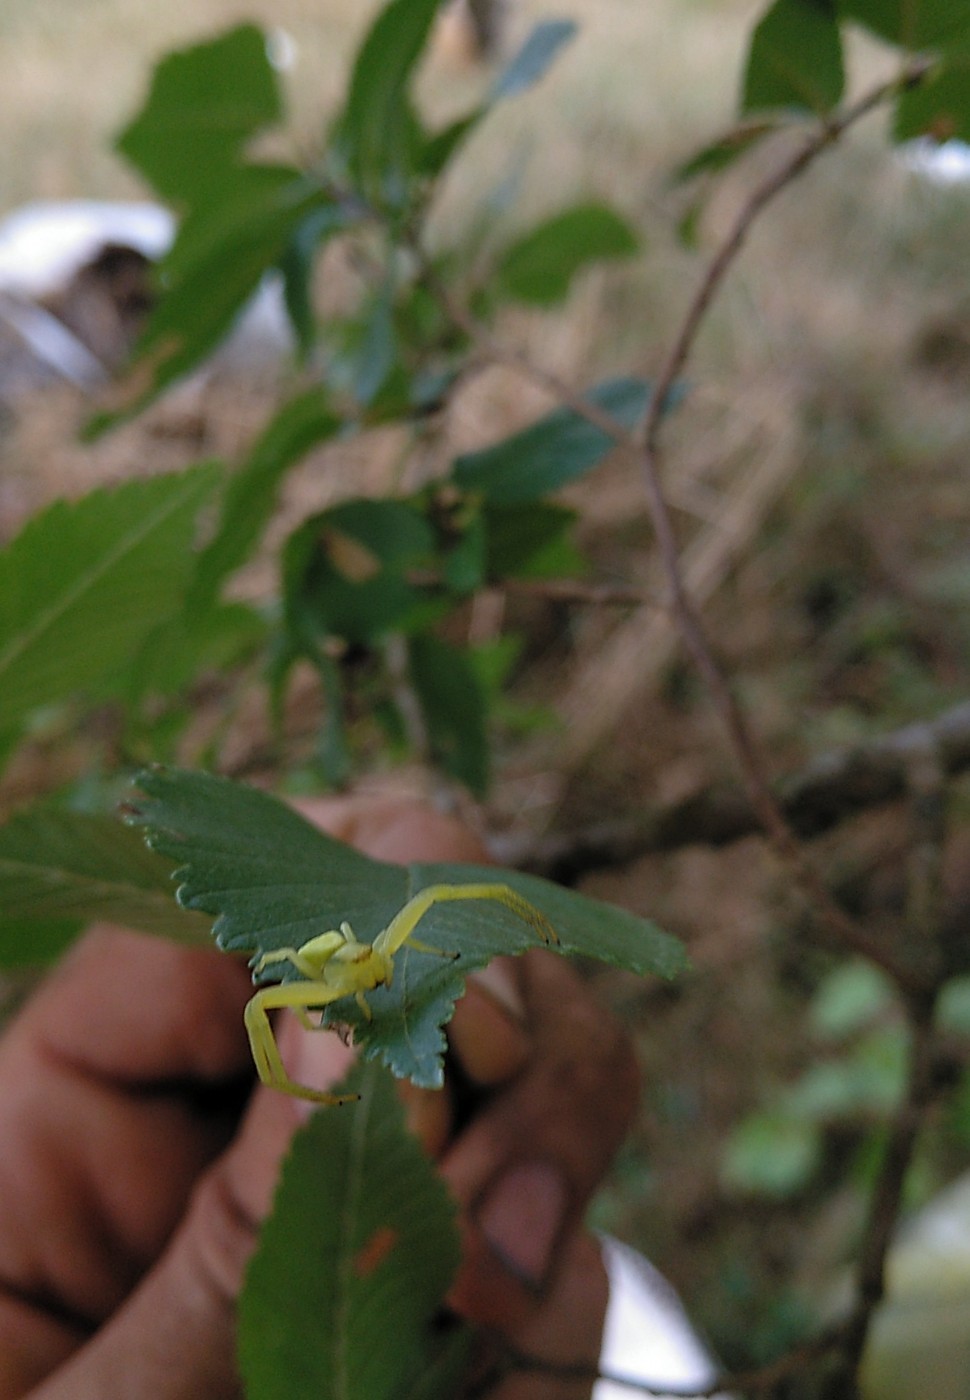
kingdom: Animalia
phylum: Arthropoda
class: Arachnida
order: Araneae
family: Thomisidae
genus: Misumena
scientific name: Misumena vatia
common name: Goldenrod crab spider
